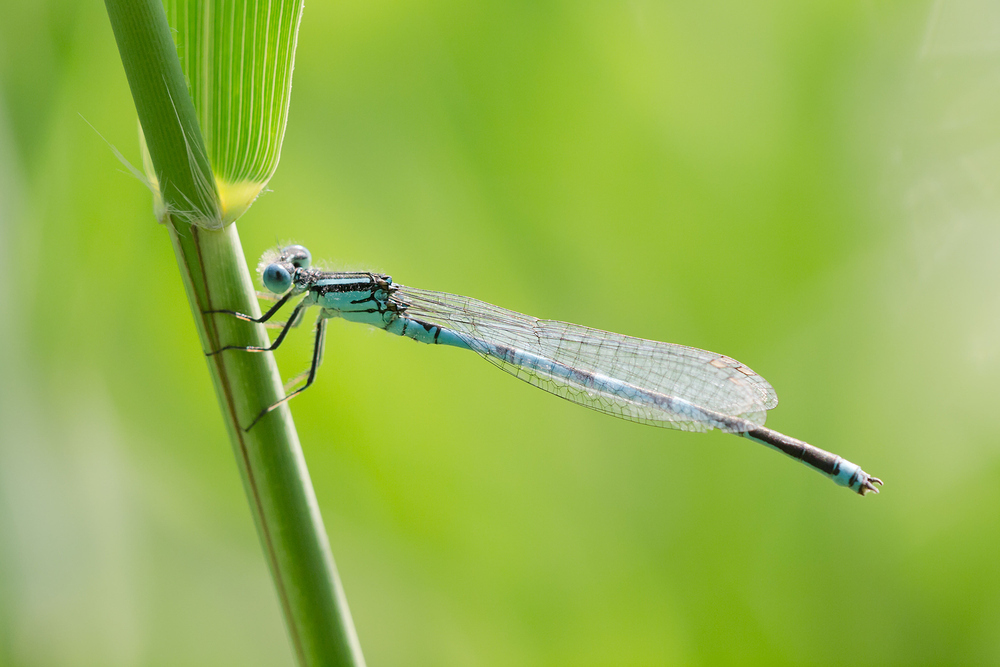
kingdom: Animalia
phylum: Arthropoda
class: Insecta
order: Odonata
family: Coenagrionidae
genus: Erythromma
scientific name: Erythromma lindenii
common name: Blue-eye
